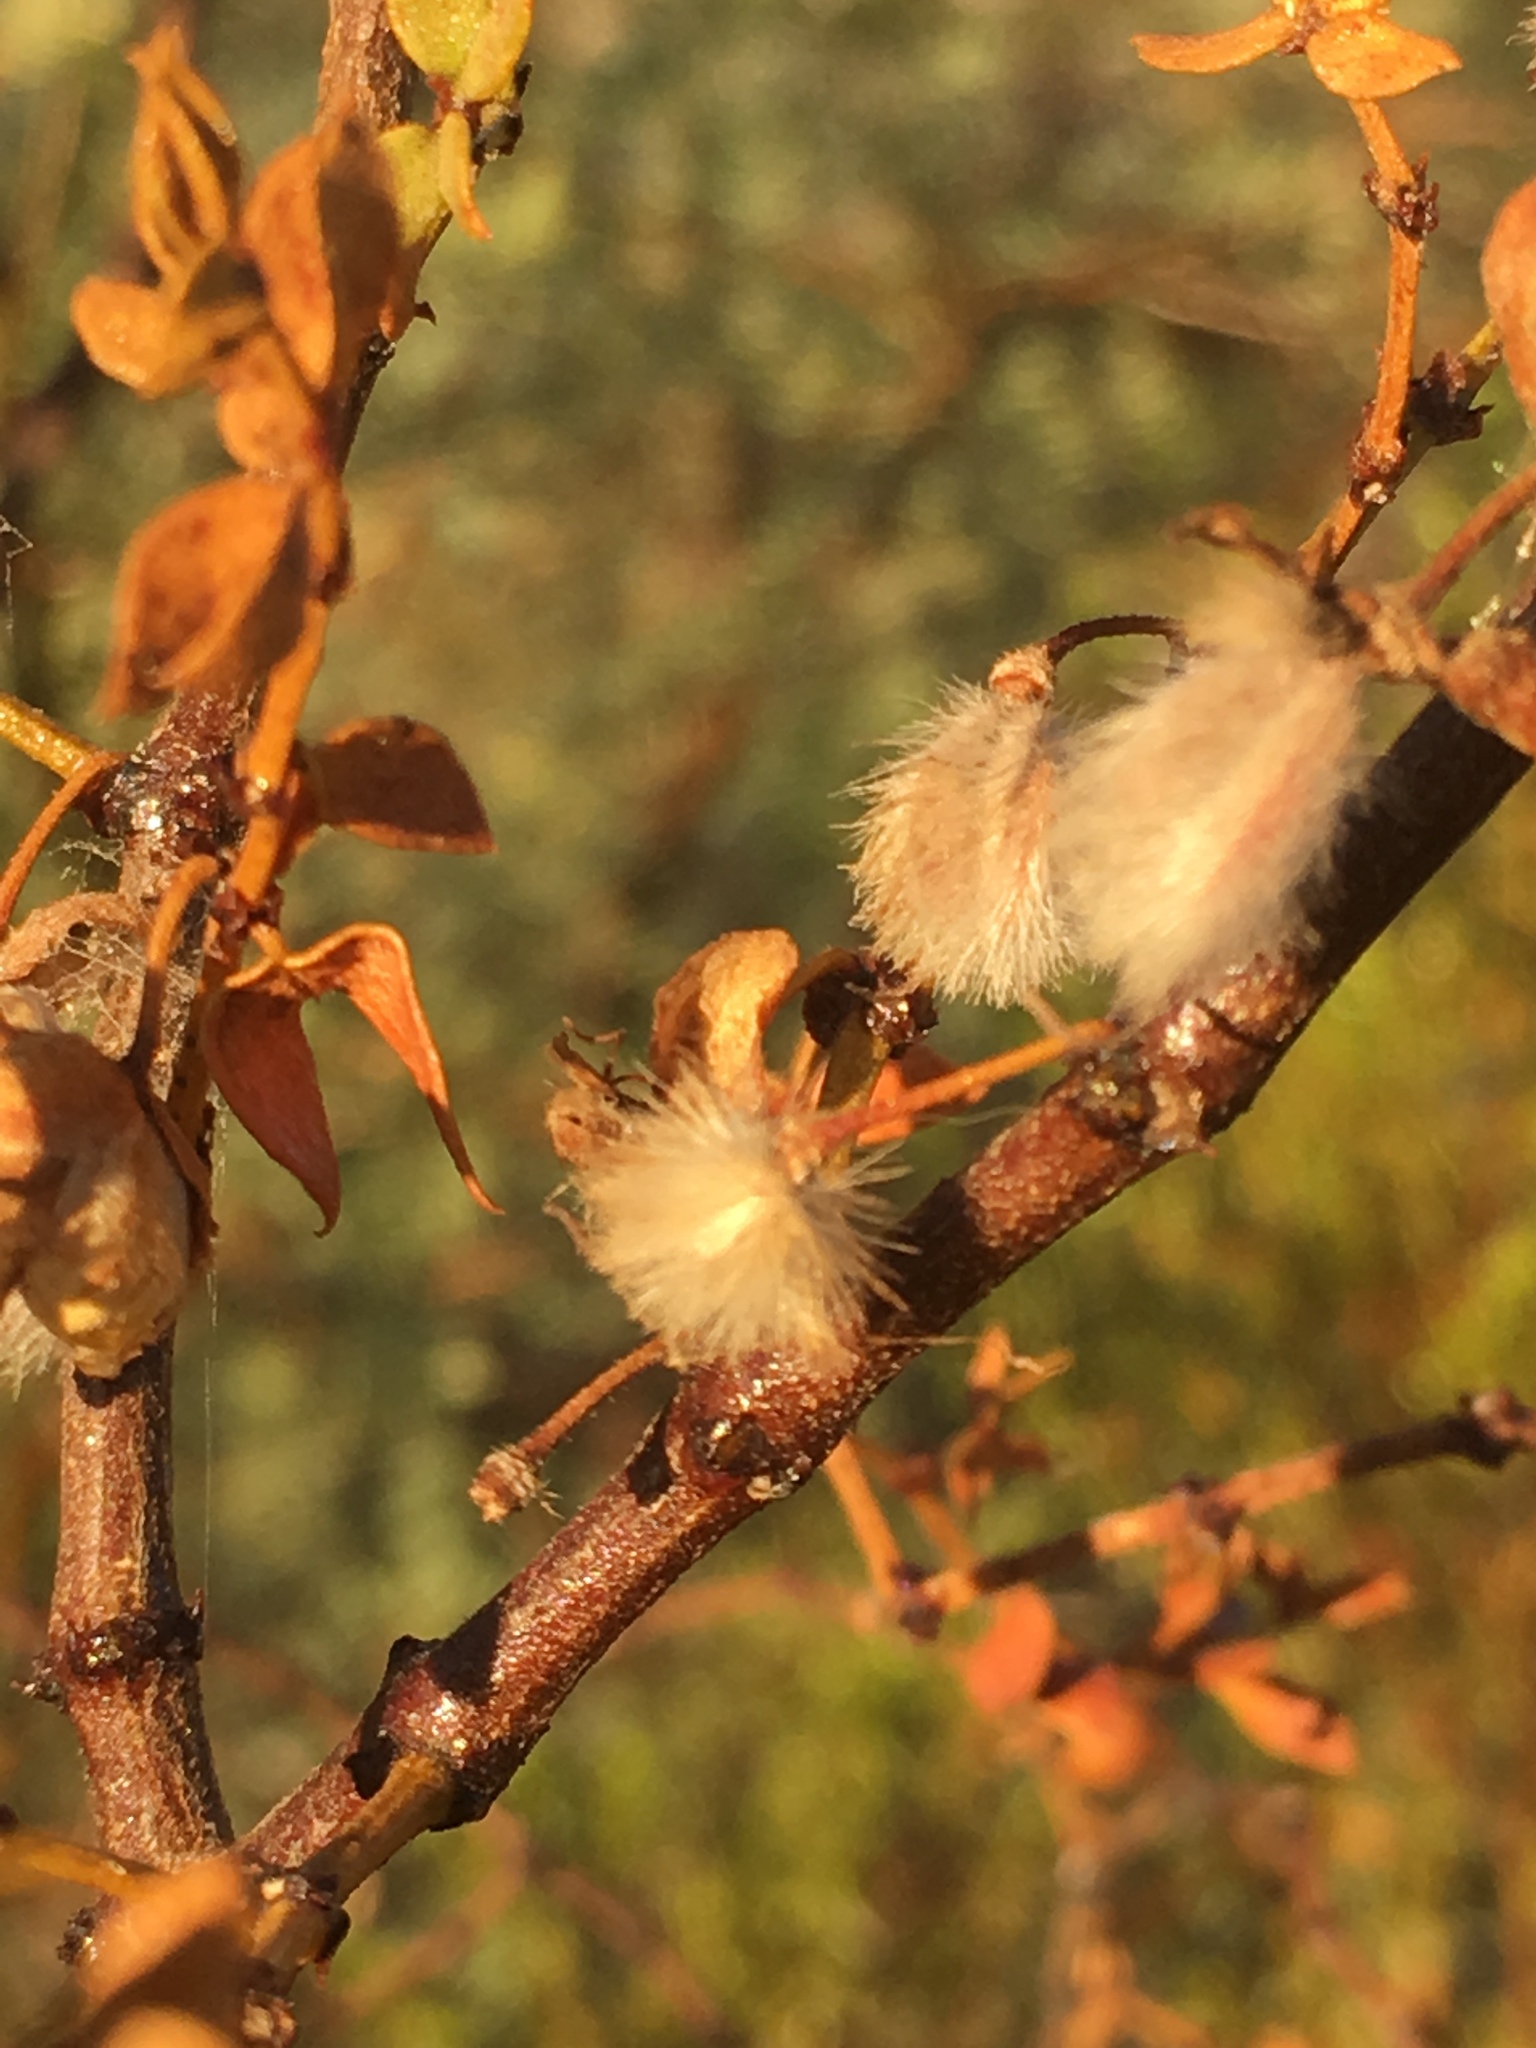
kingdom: Plantae
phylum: Tracheophyta
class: Magnoliopsida
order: Zygophyllales
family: Zygophyllaceae
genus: Larrea
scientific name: Larrea tridentata
